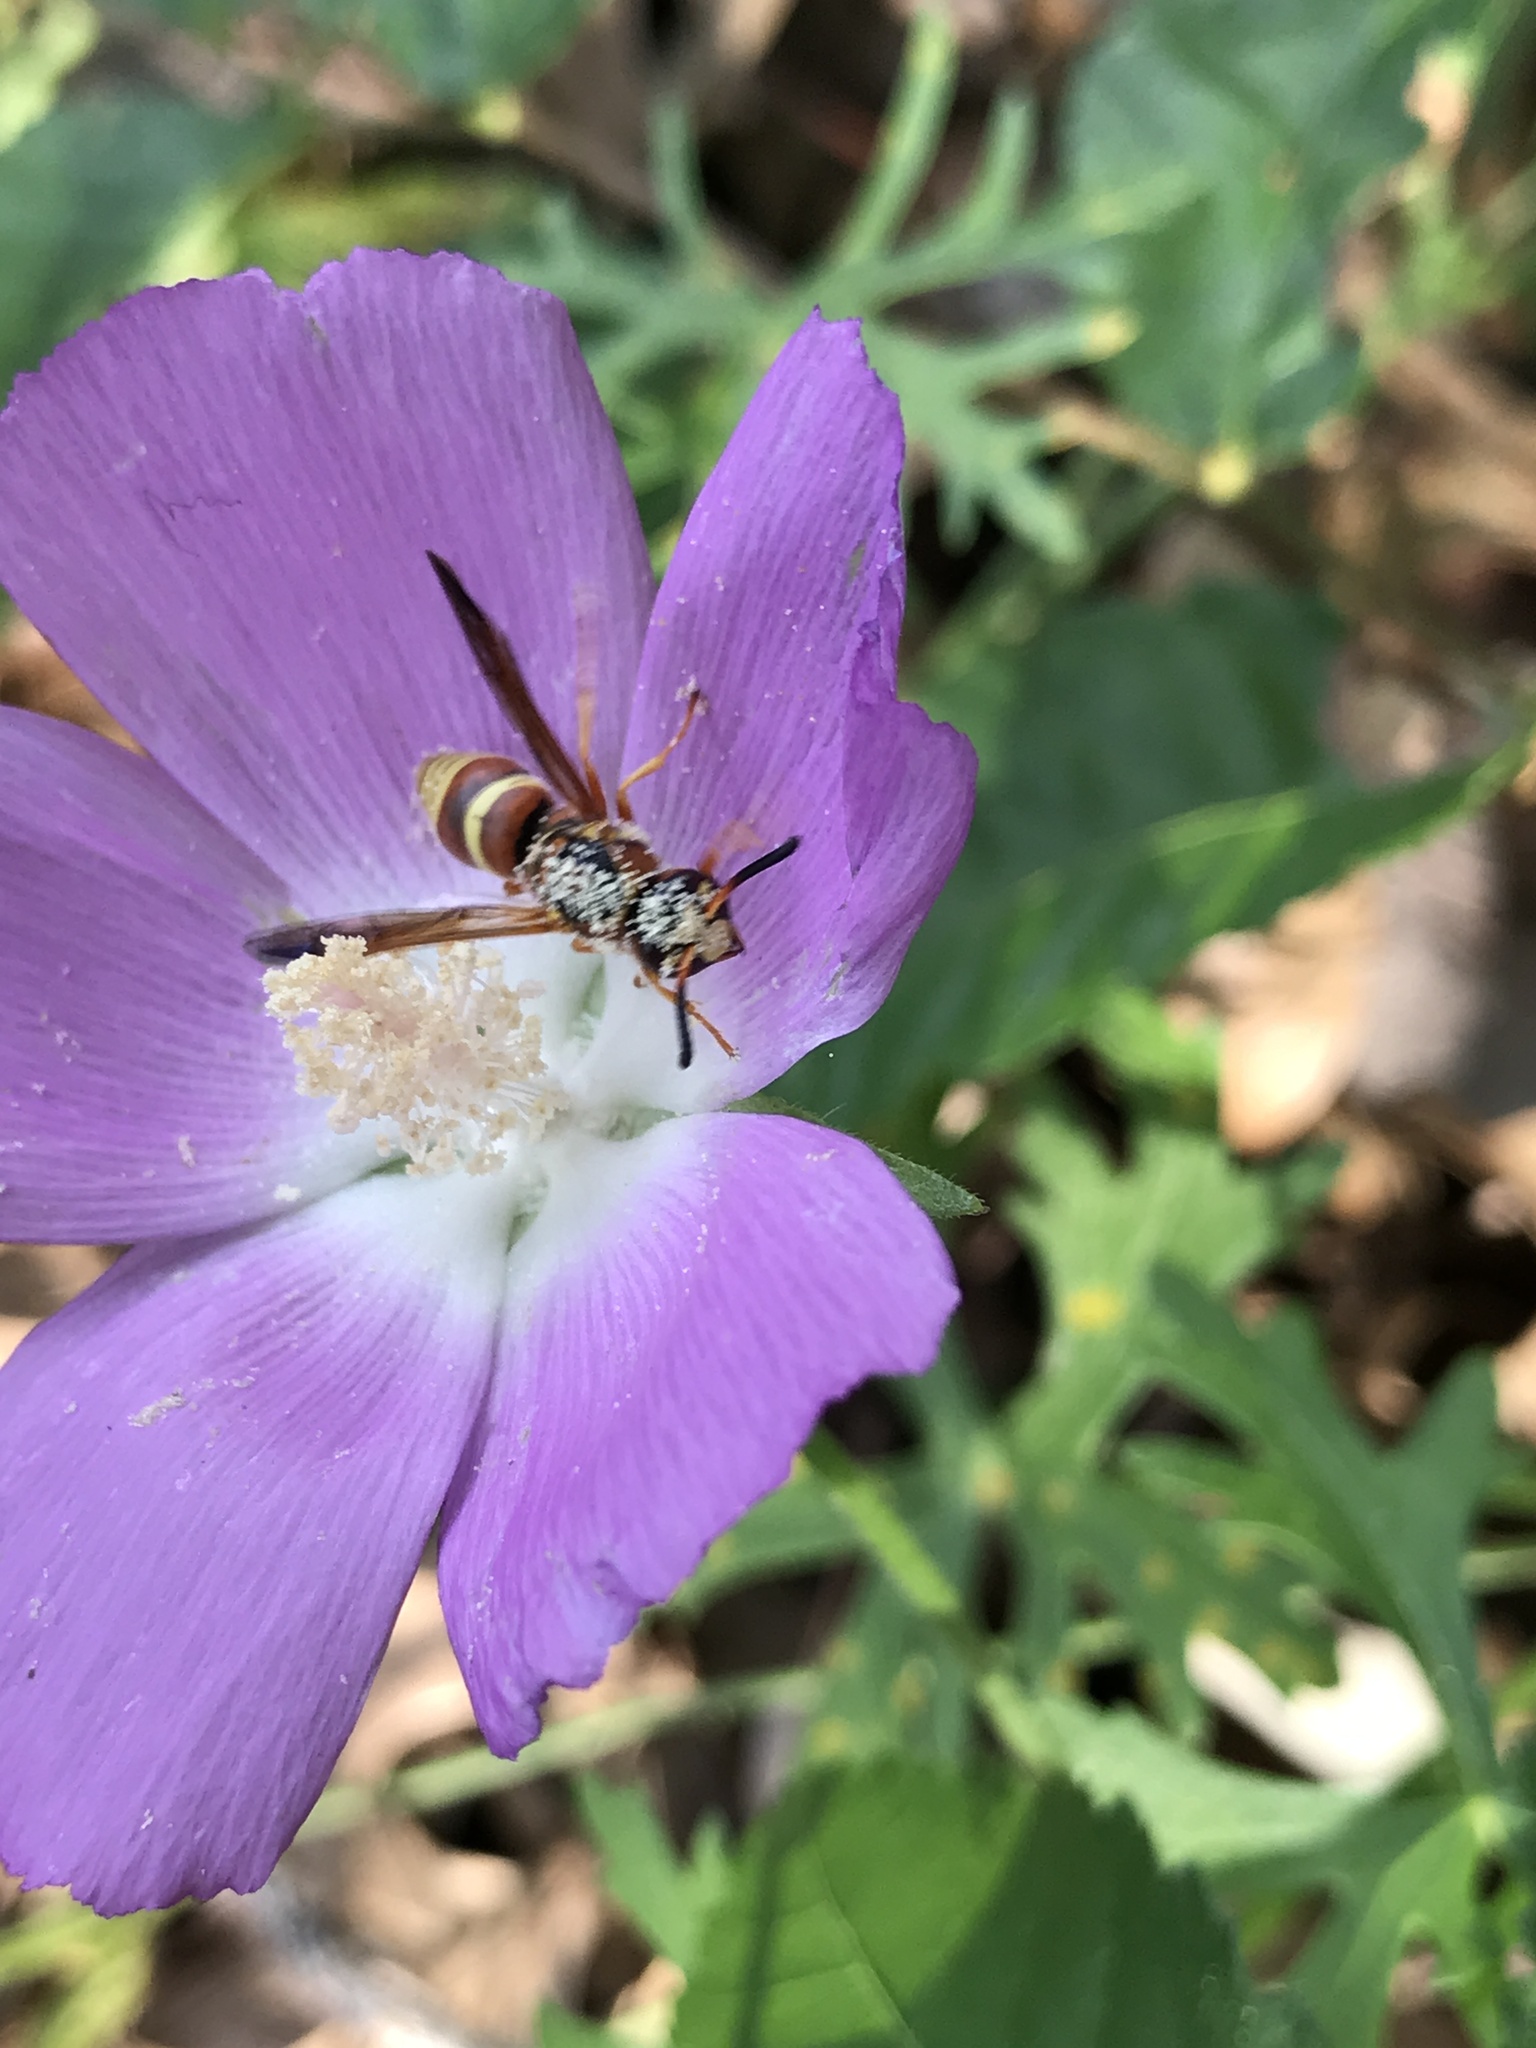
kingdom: Animalia
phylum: Arthropoda
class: Insecta
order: Hymenoptera
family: Eumenidae
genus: Euodynerus
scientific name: Euodynerus pratensis
